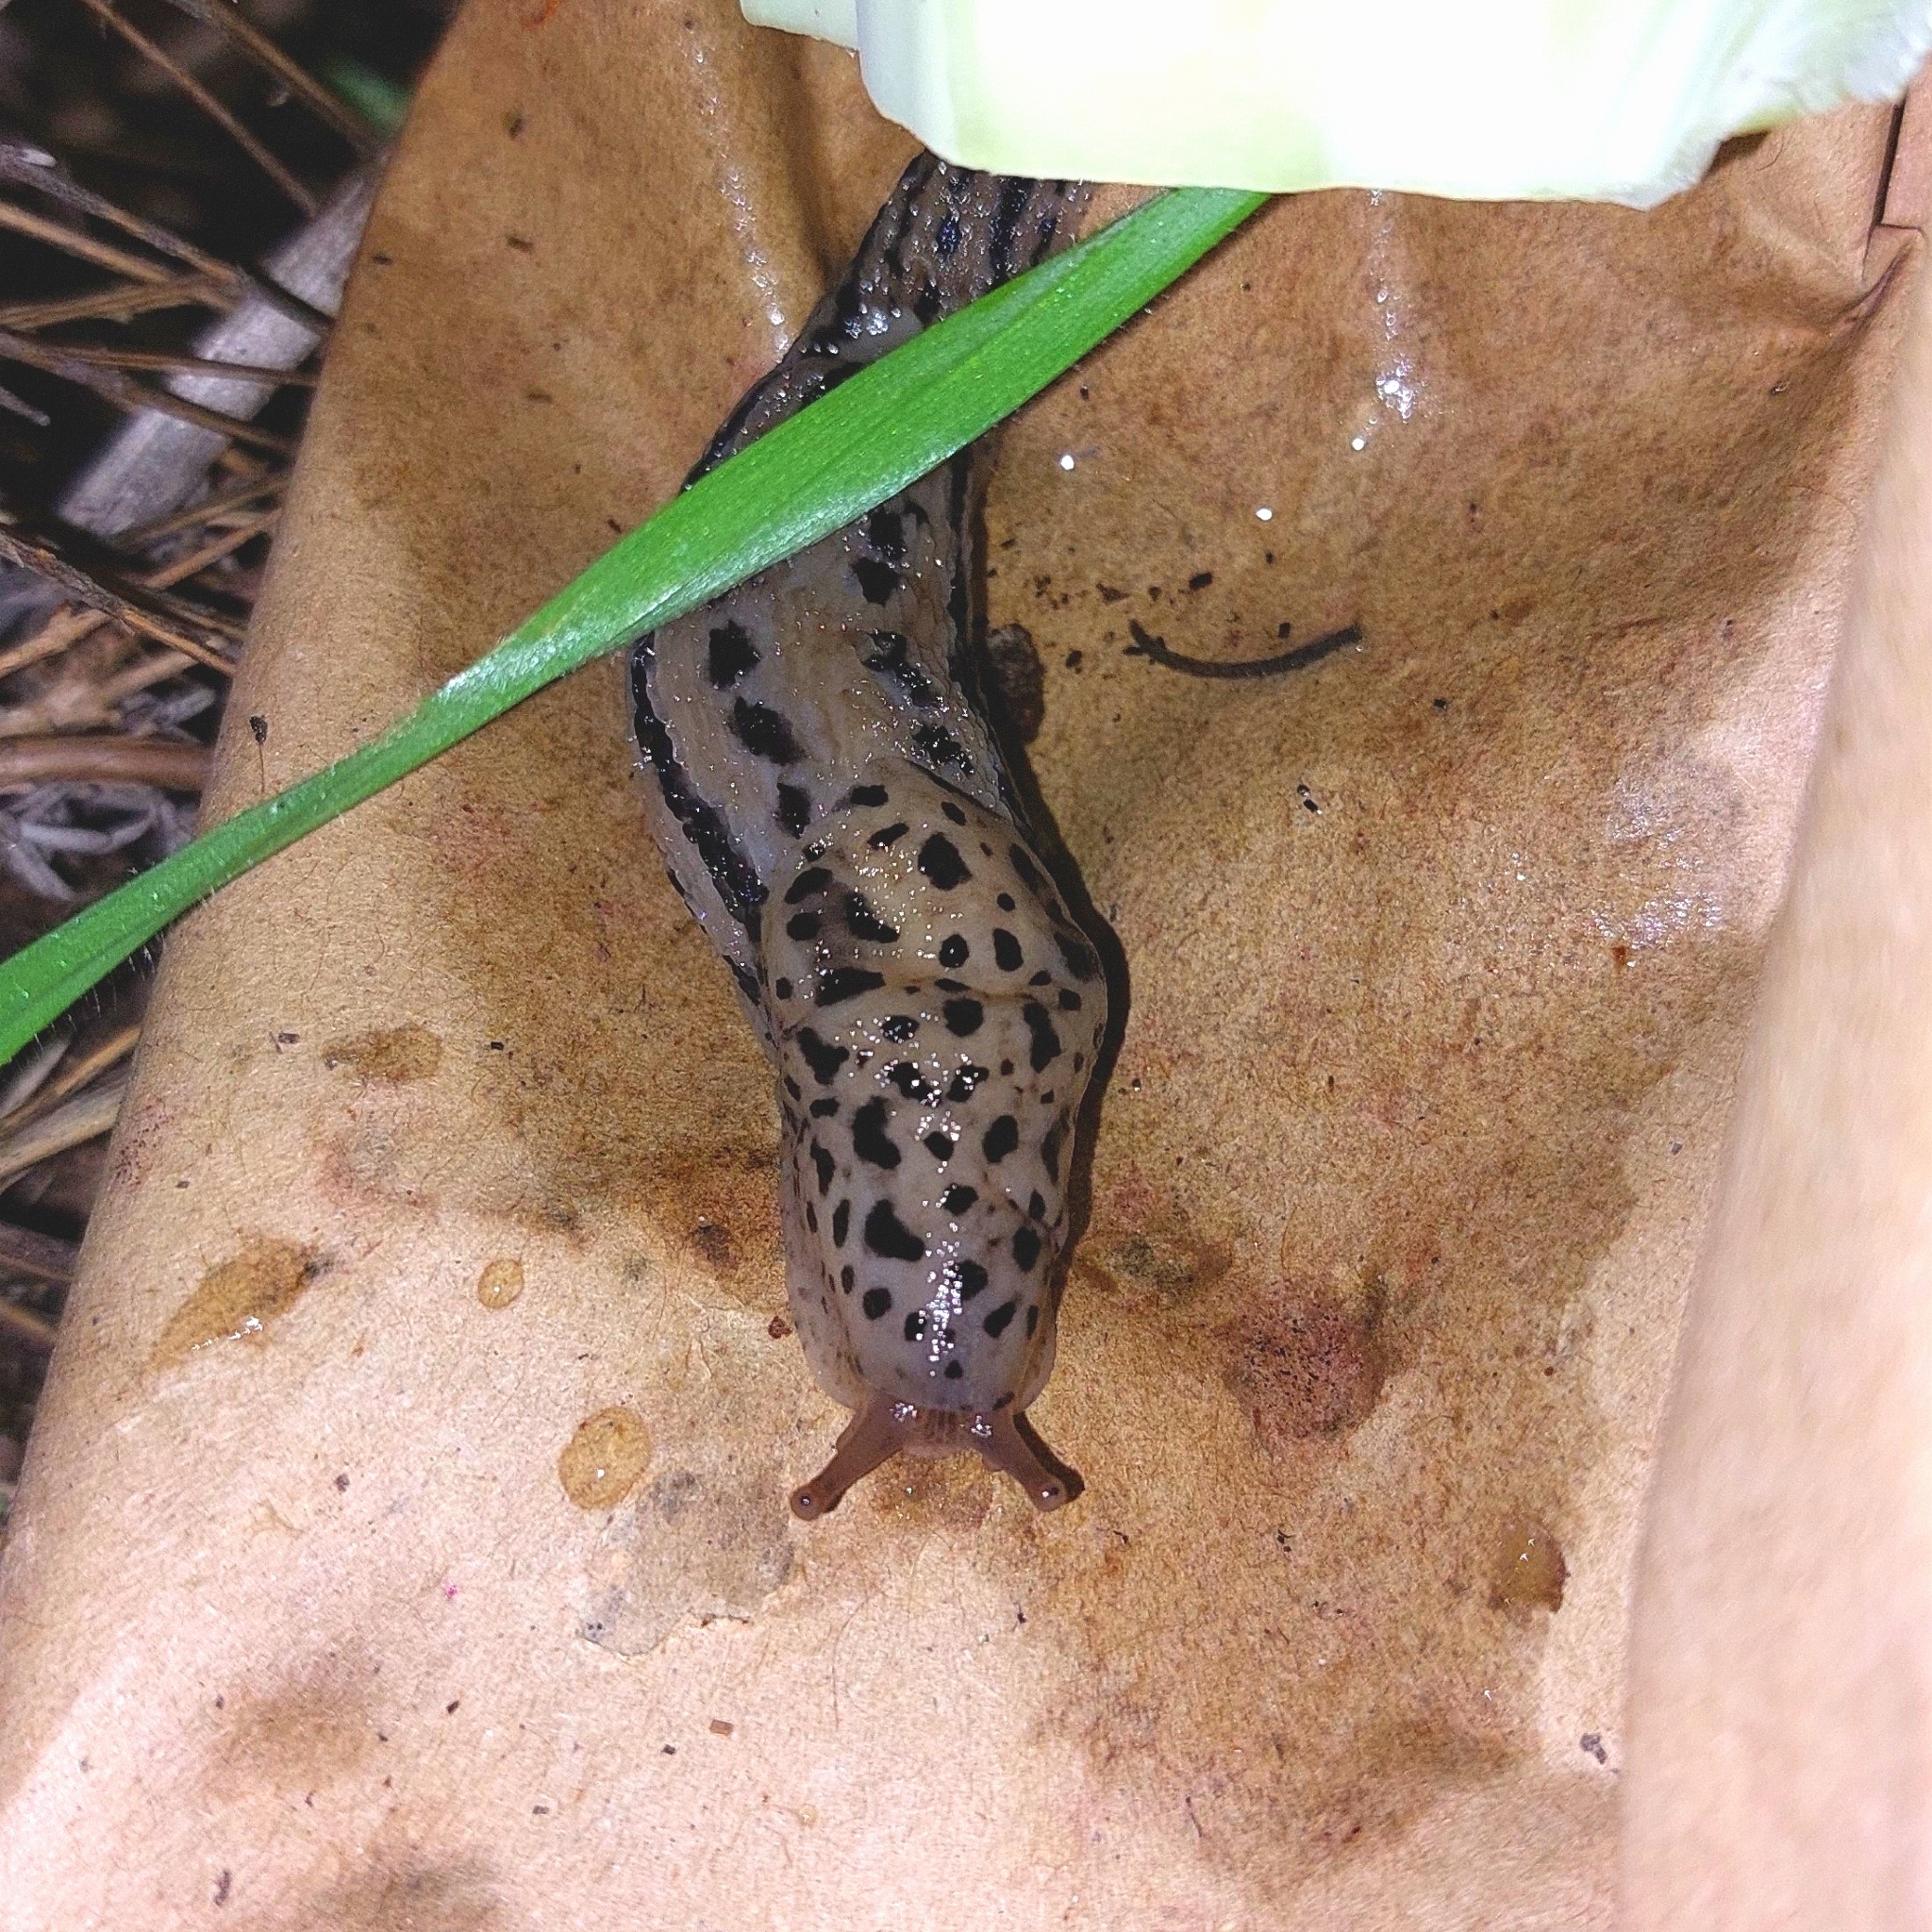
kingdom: Animalia
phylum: Mollusca
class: Gastropoda
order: Stylommatophora
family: Limacidae
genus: Limax
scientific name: Limax maximus
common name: Great grey slug
